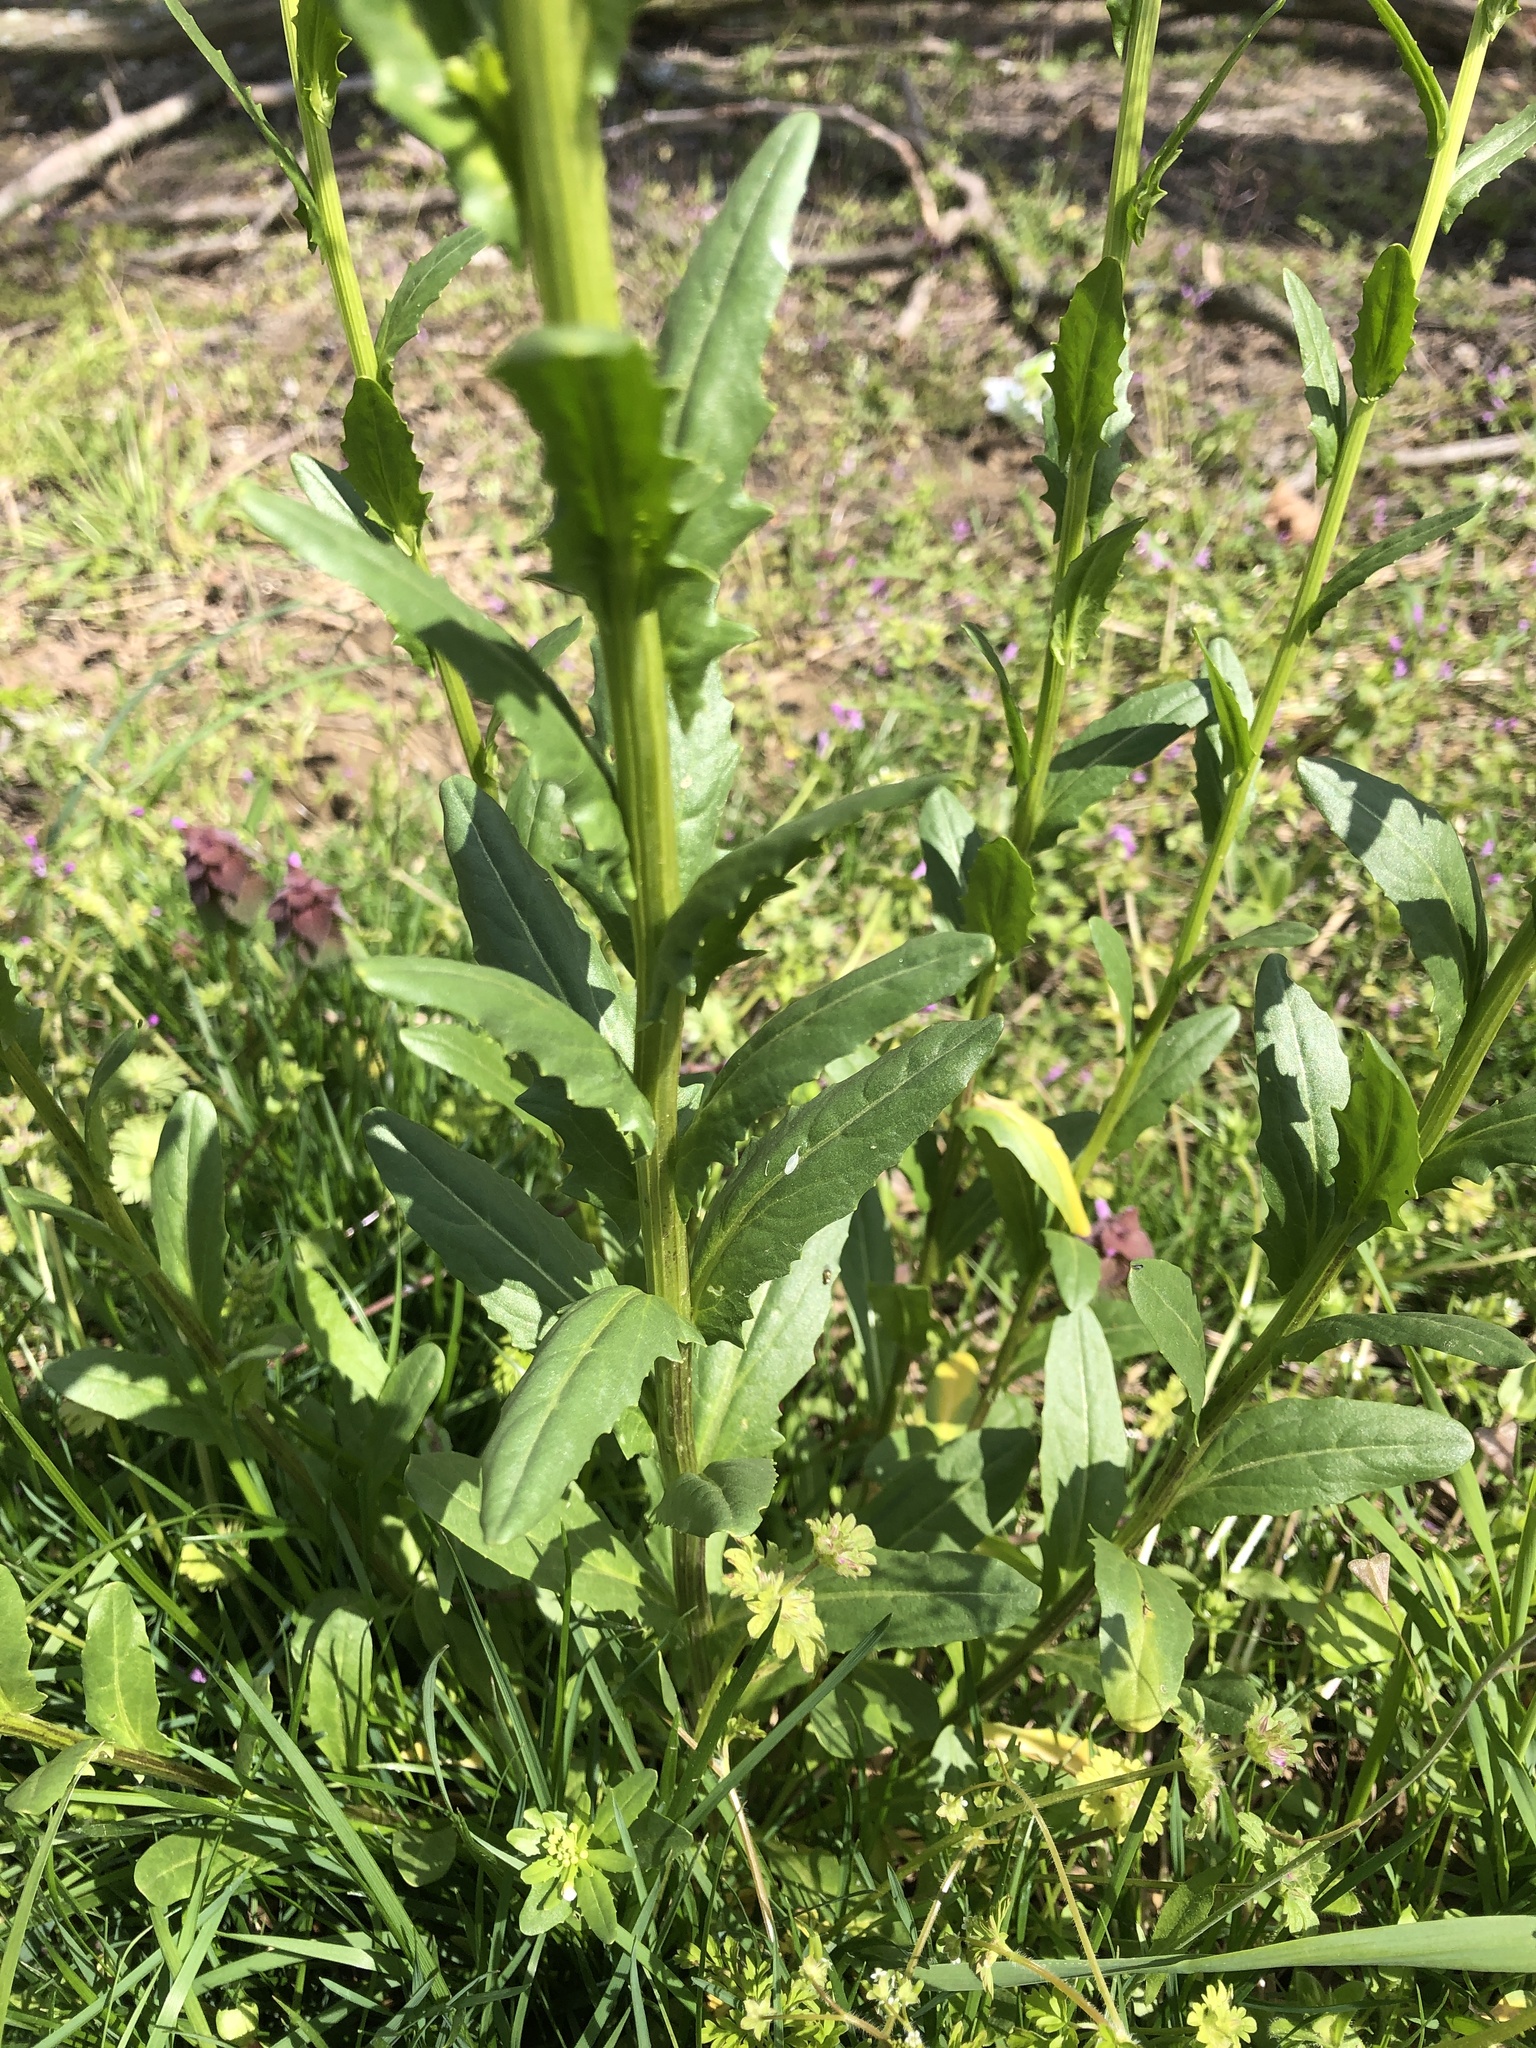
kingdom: Plantae
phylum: Tracheophyta
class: Magnoliopsida
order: Brassicales
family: Brassicaceae
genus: Thlaspi
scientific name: Thlaspi arvense
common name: Field pennycress
